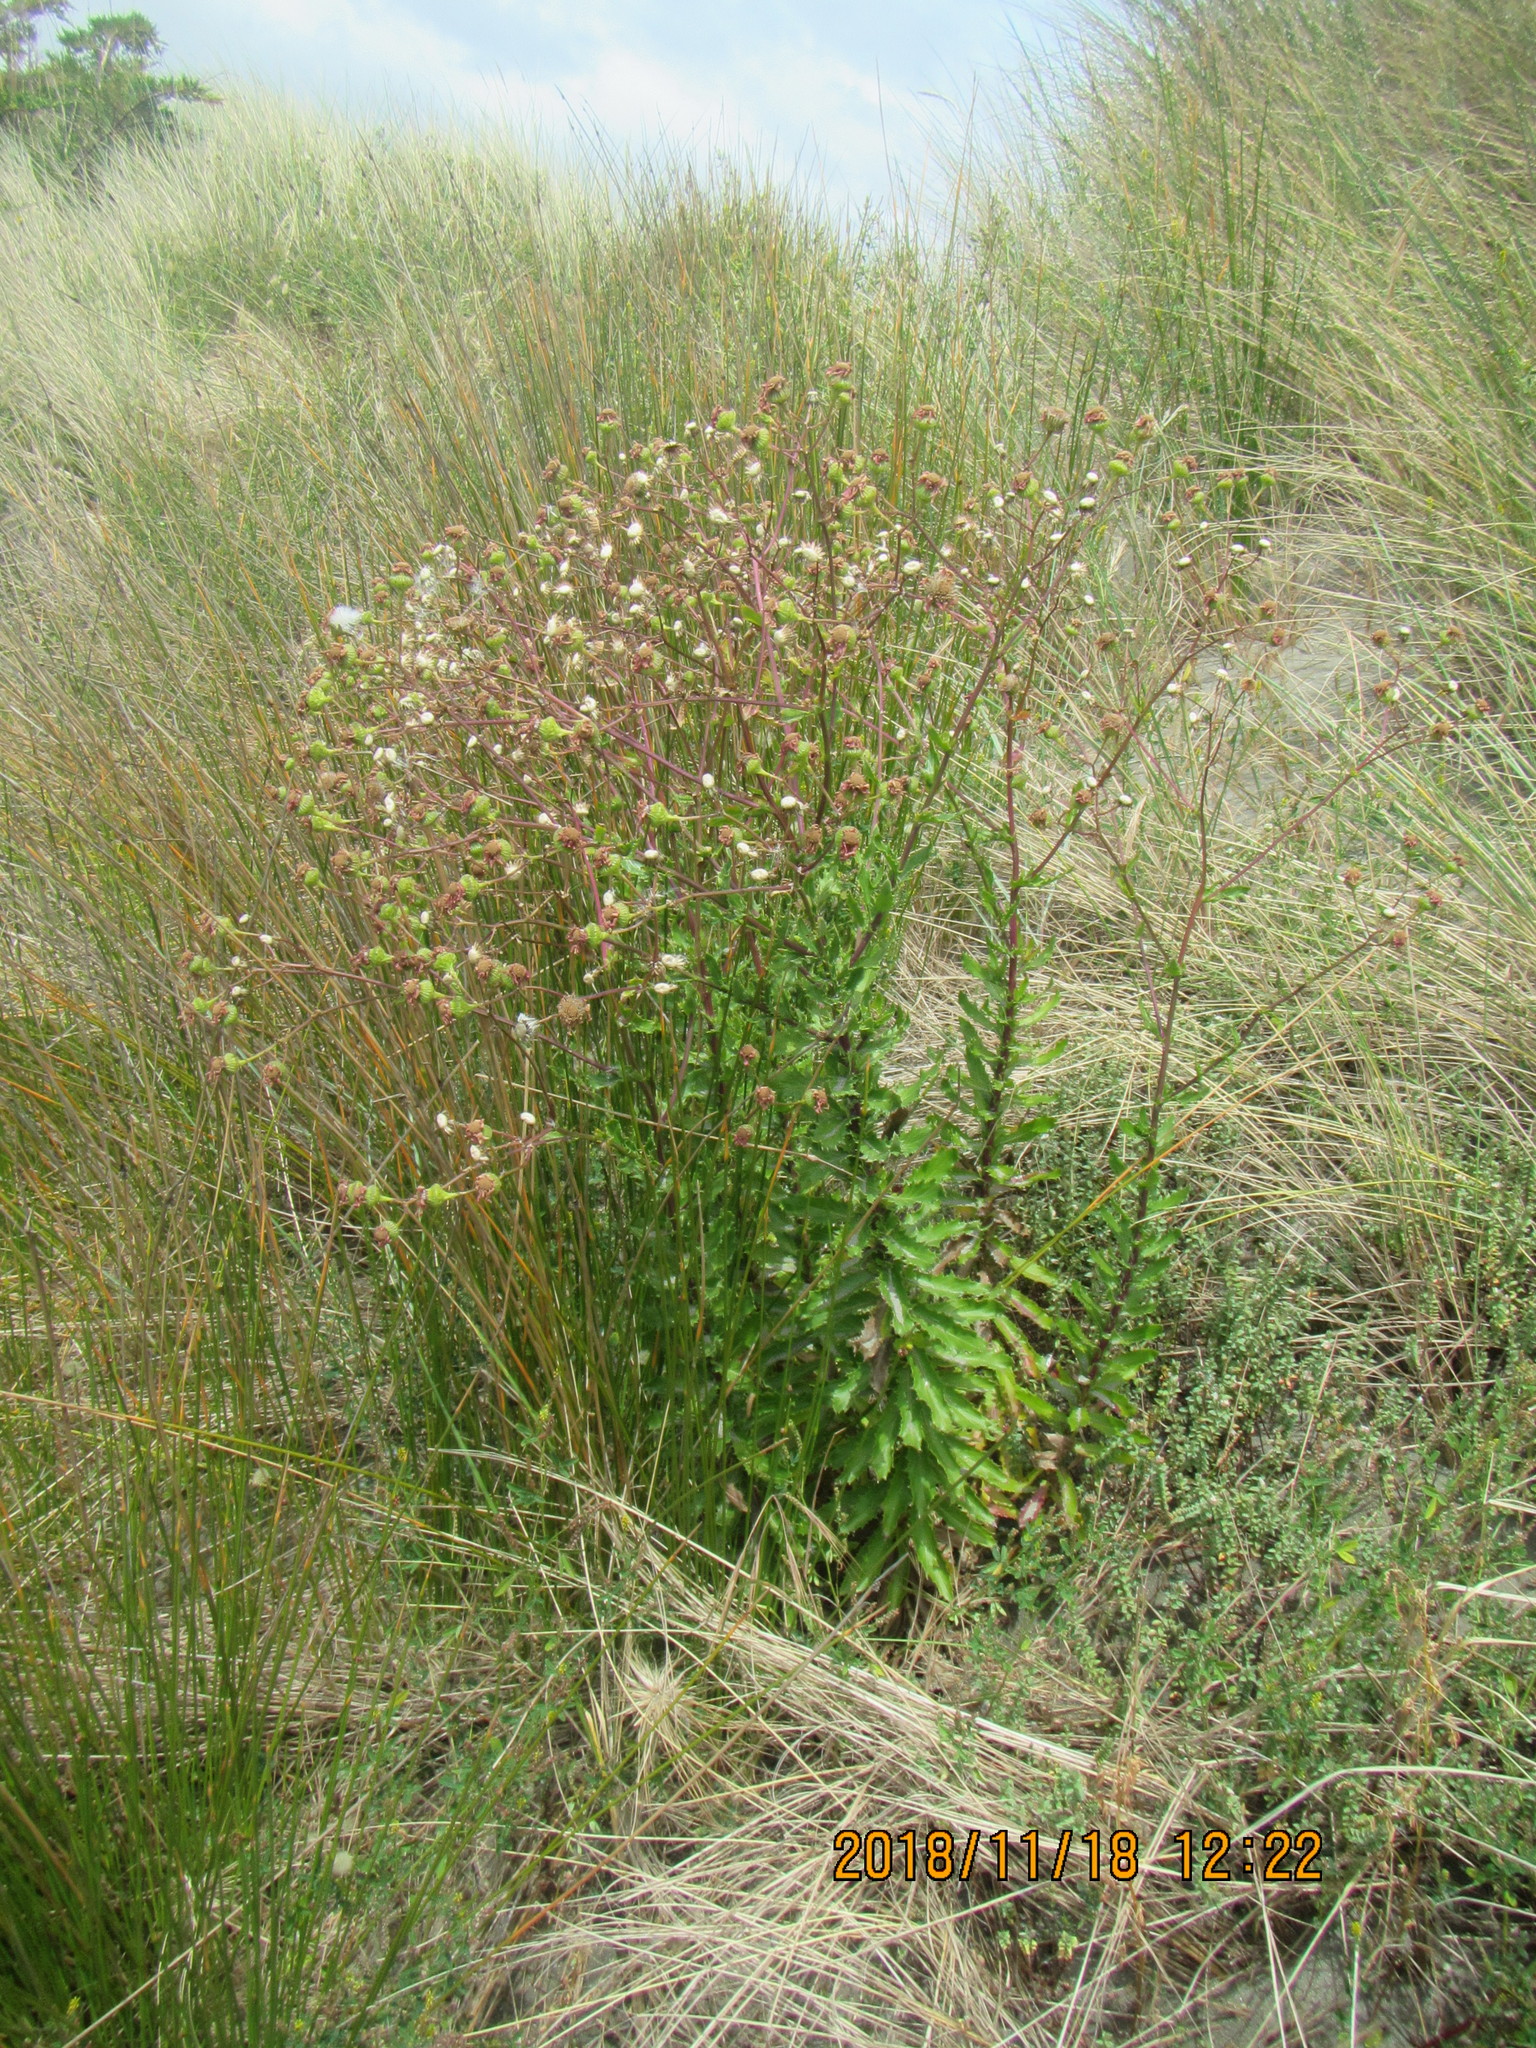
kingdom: Plantae
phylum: Tracheophyta
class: Magnoliopsida
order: Asterales
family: Asteraceae
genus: Senecio
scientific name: Senecio glastifolius
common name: Woad-leaved ragwort
